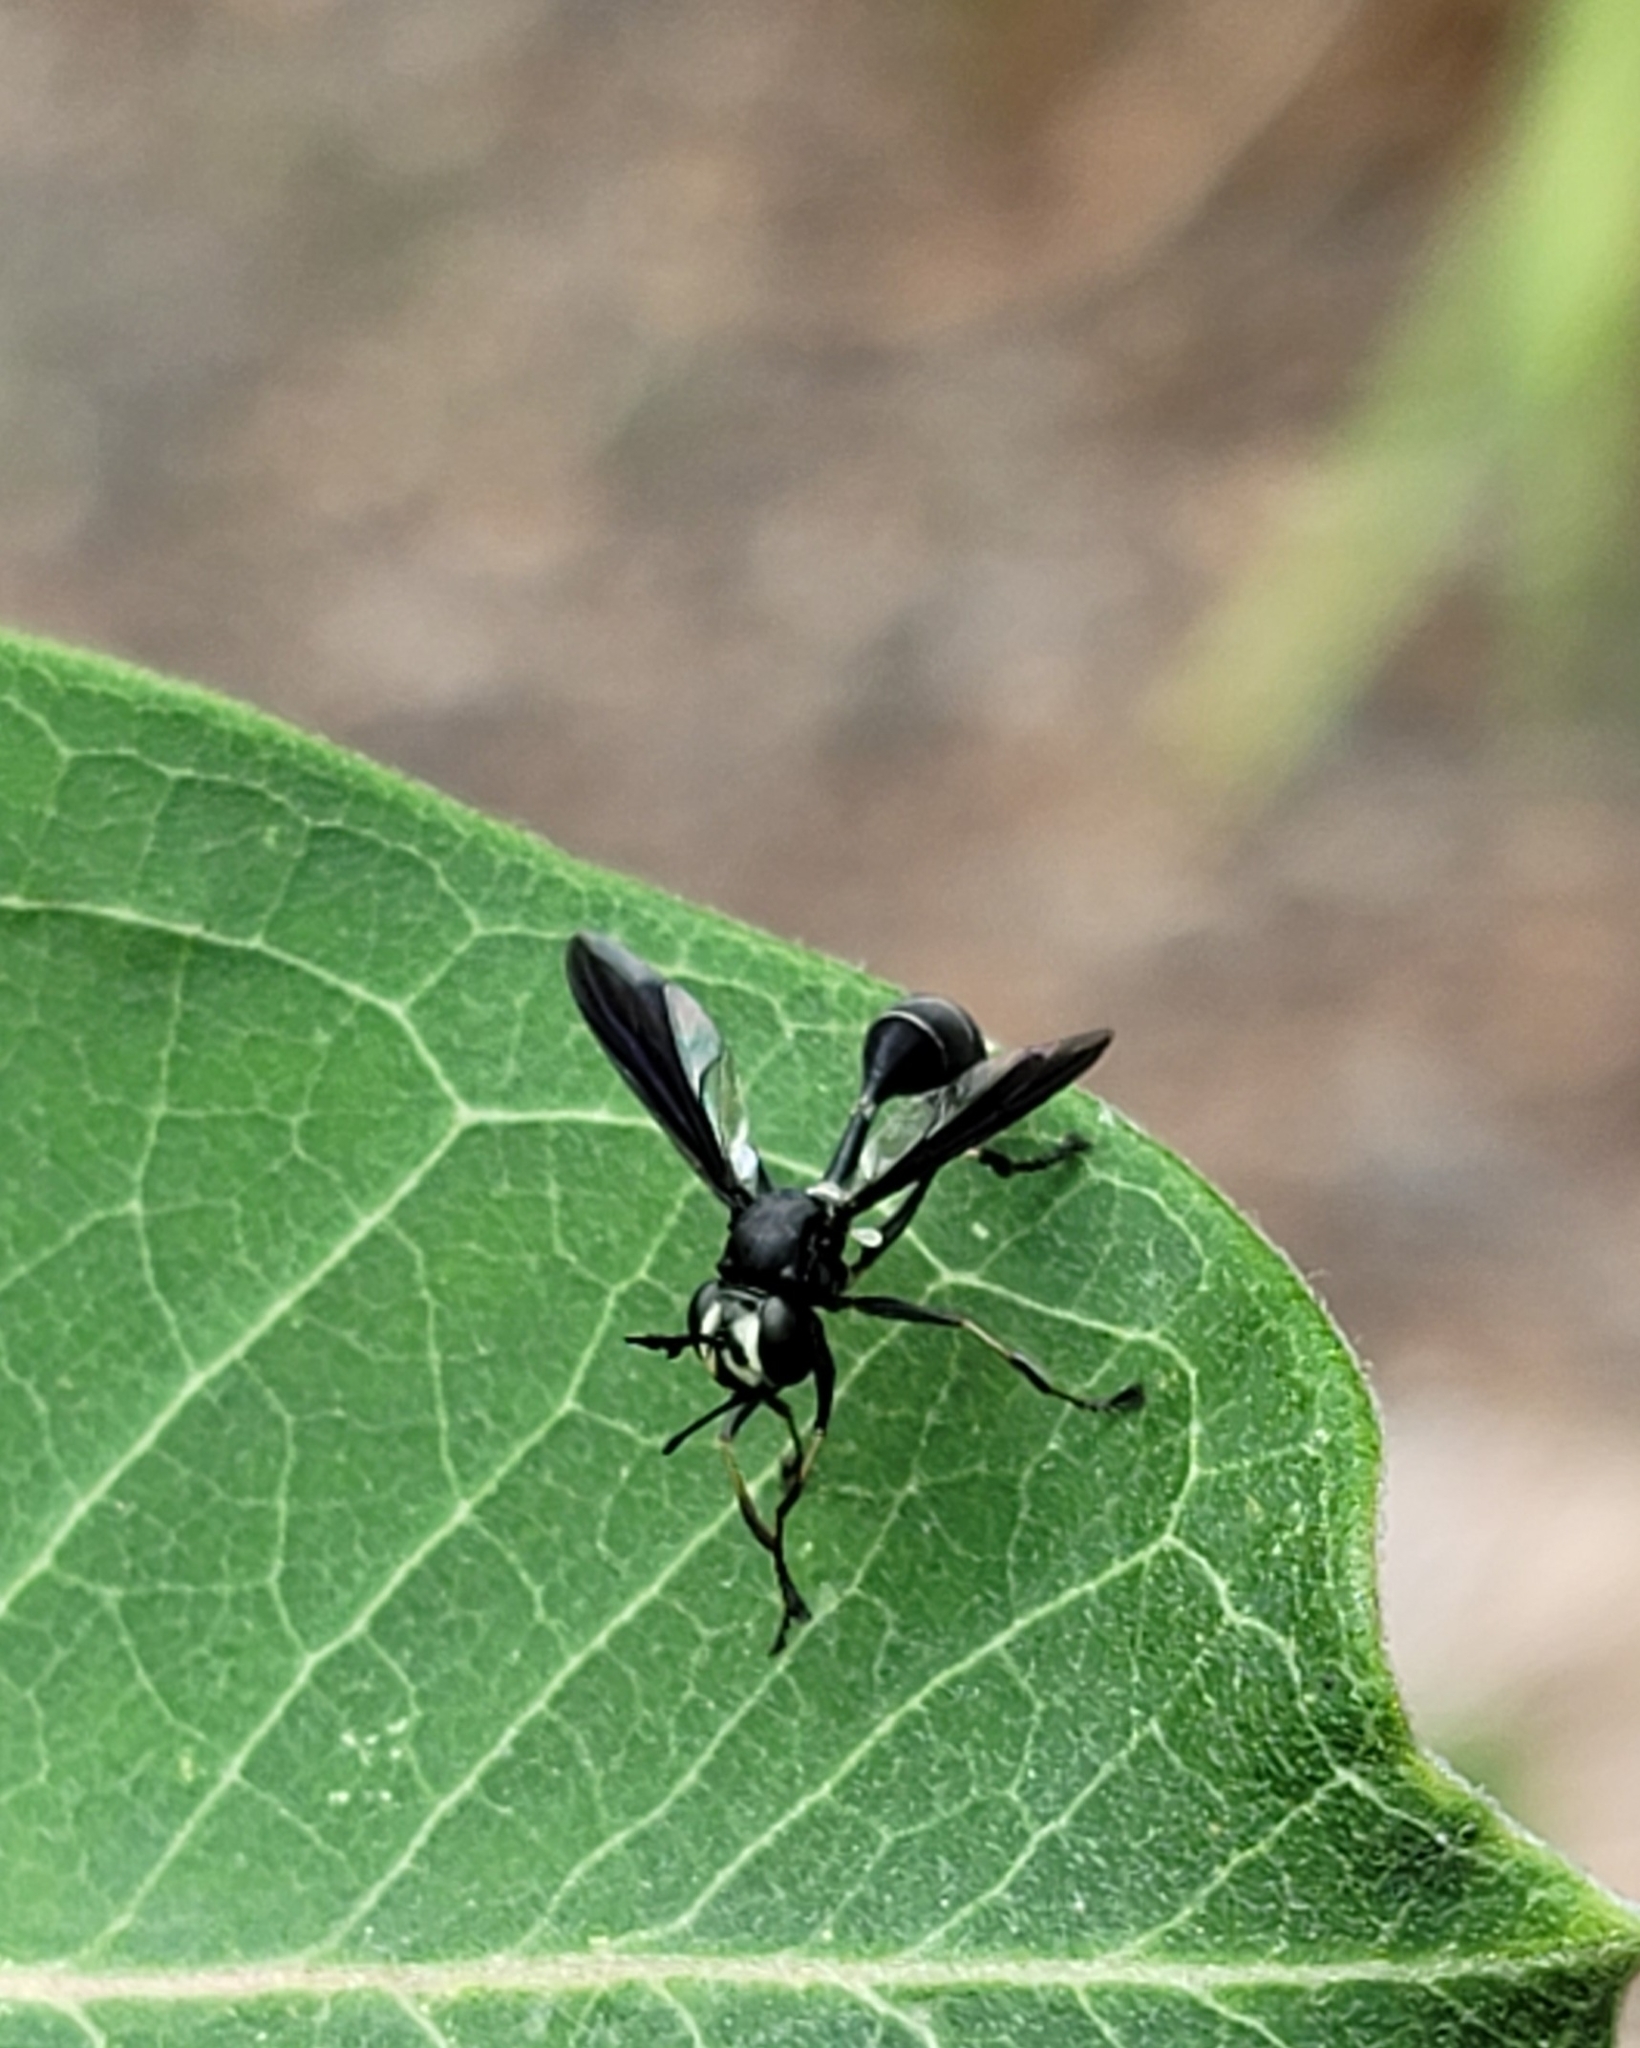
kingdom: Animalia
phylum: Arthropoda
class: Insecta
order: Diptera
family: Conopidae
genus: Physocephala
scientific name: Physocephala tibialis
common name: Common eastern physocephala
